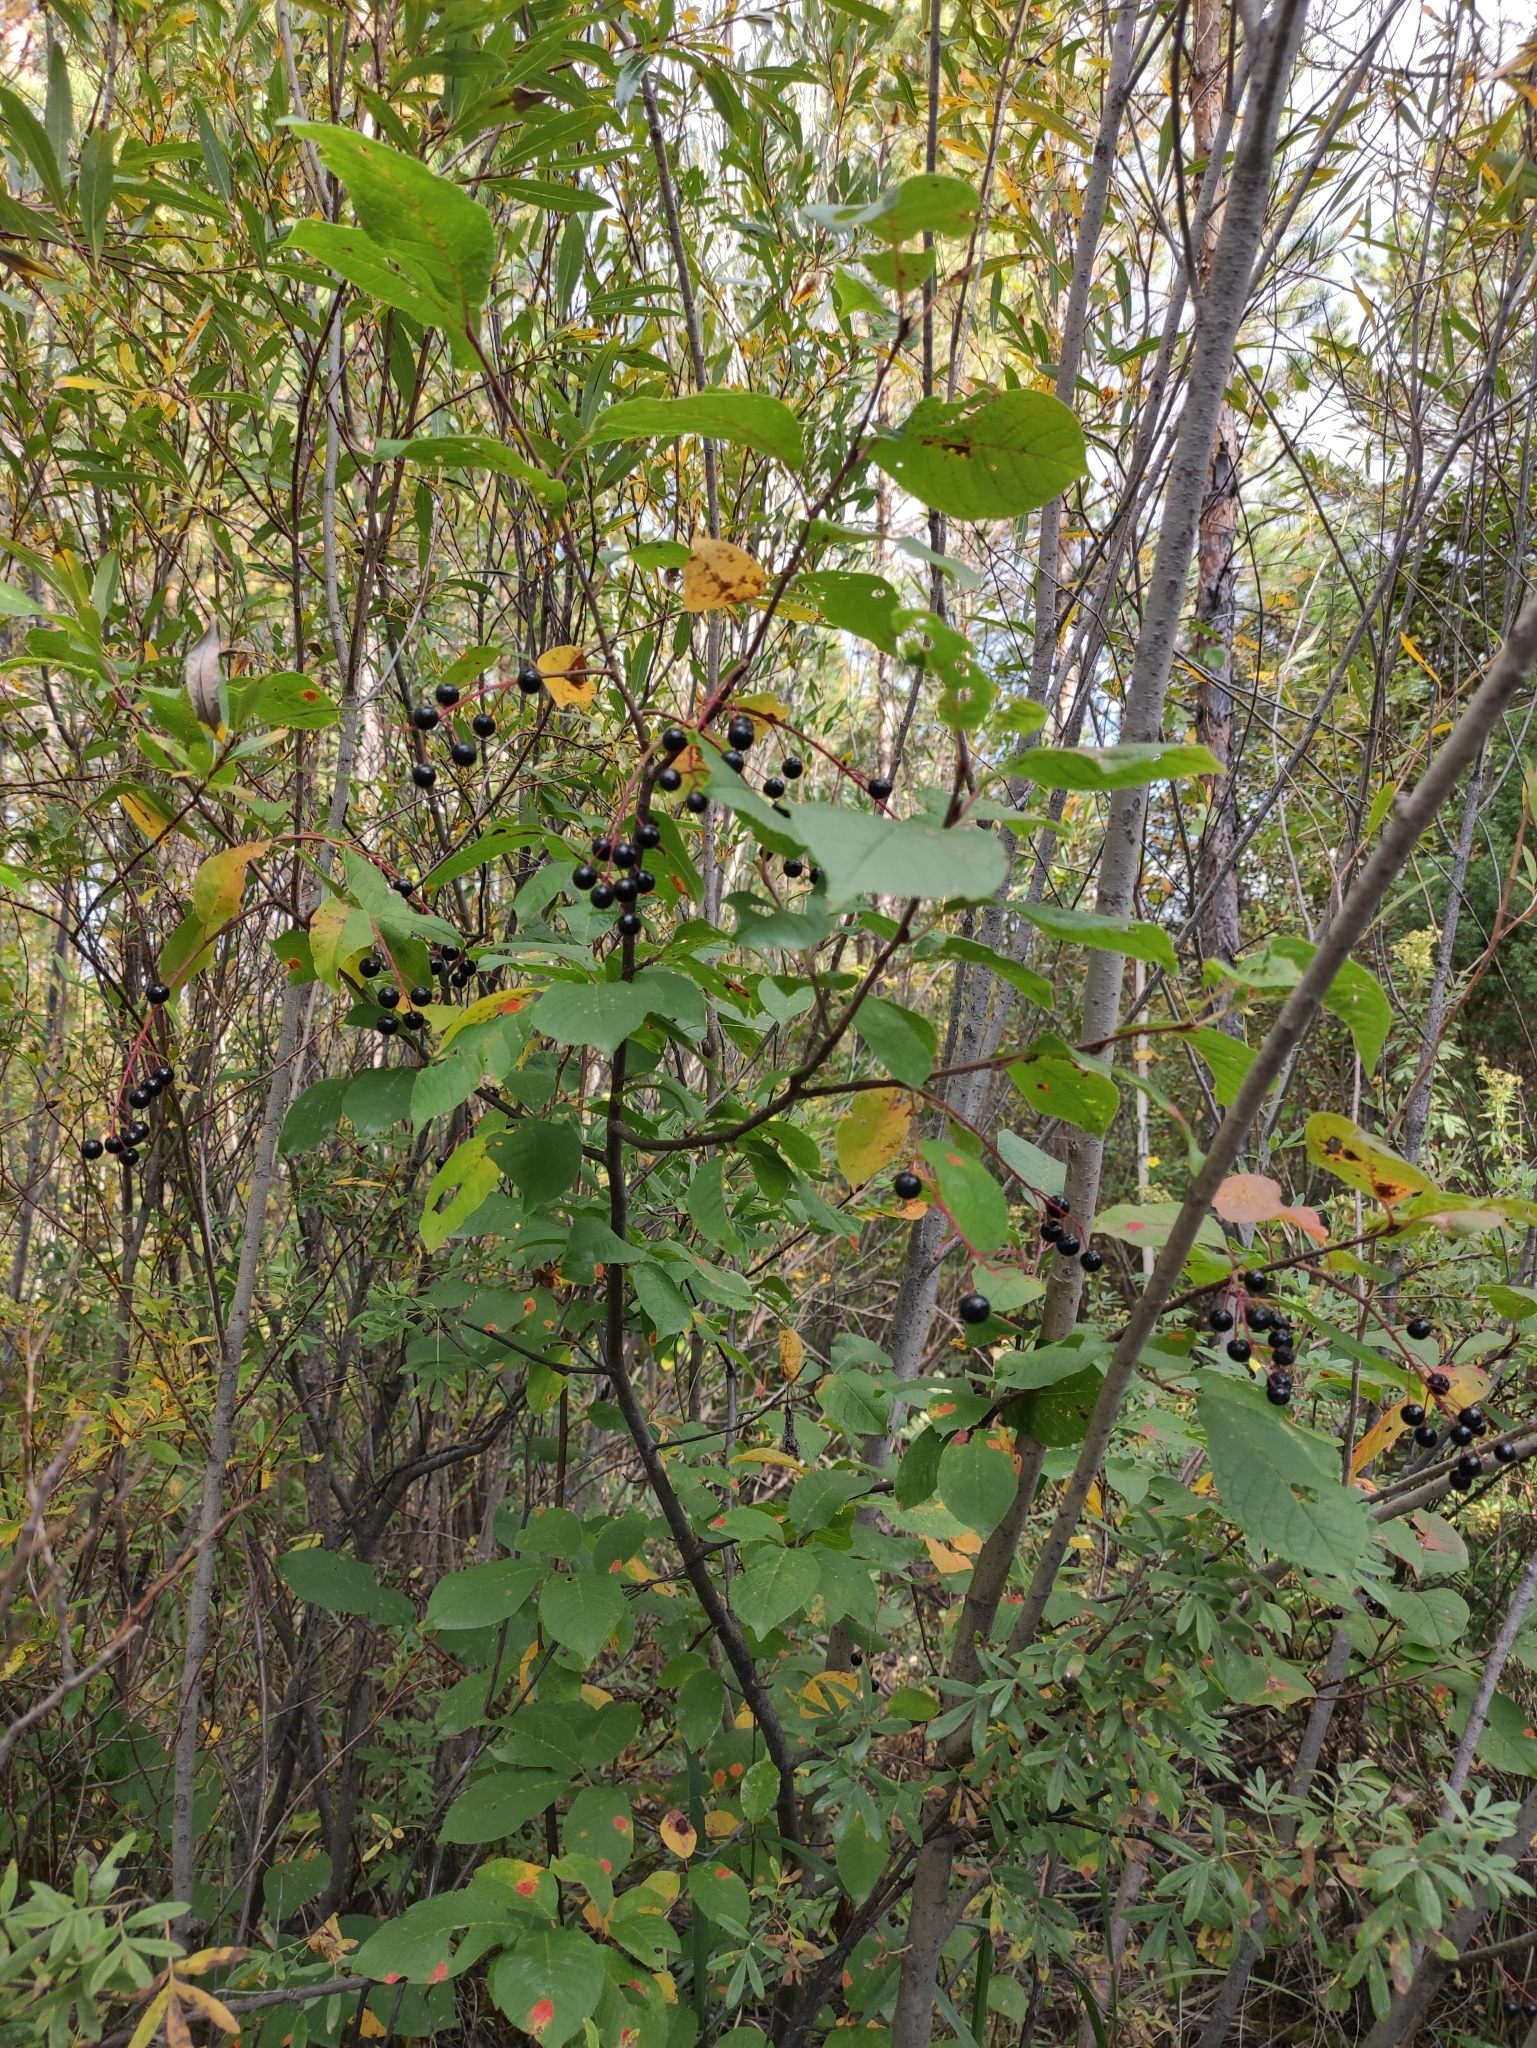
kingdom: Plantae
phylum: Tracheophyta
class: Magnoliopsida
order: Rosales
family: Rosaceae
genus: Prunus
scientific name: Prunus padus
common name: Bird cherry
